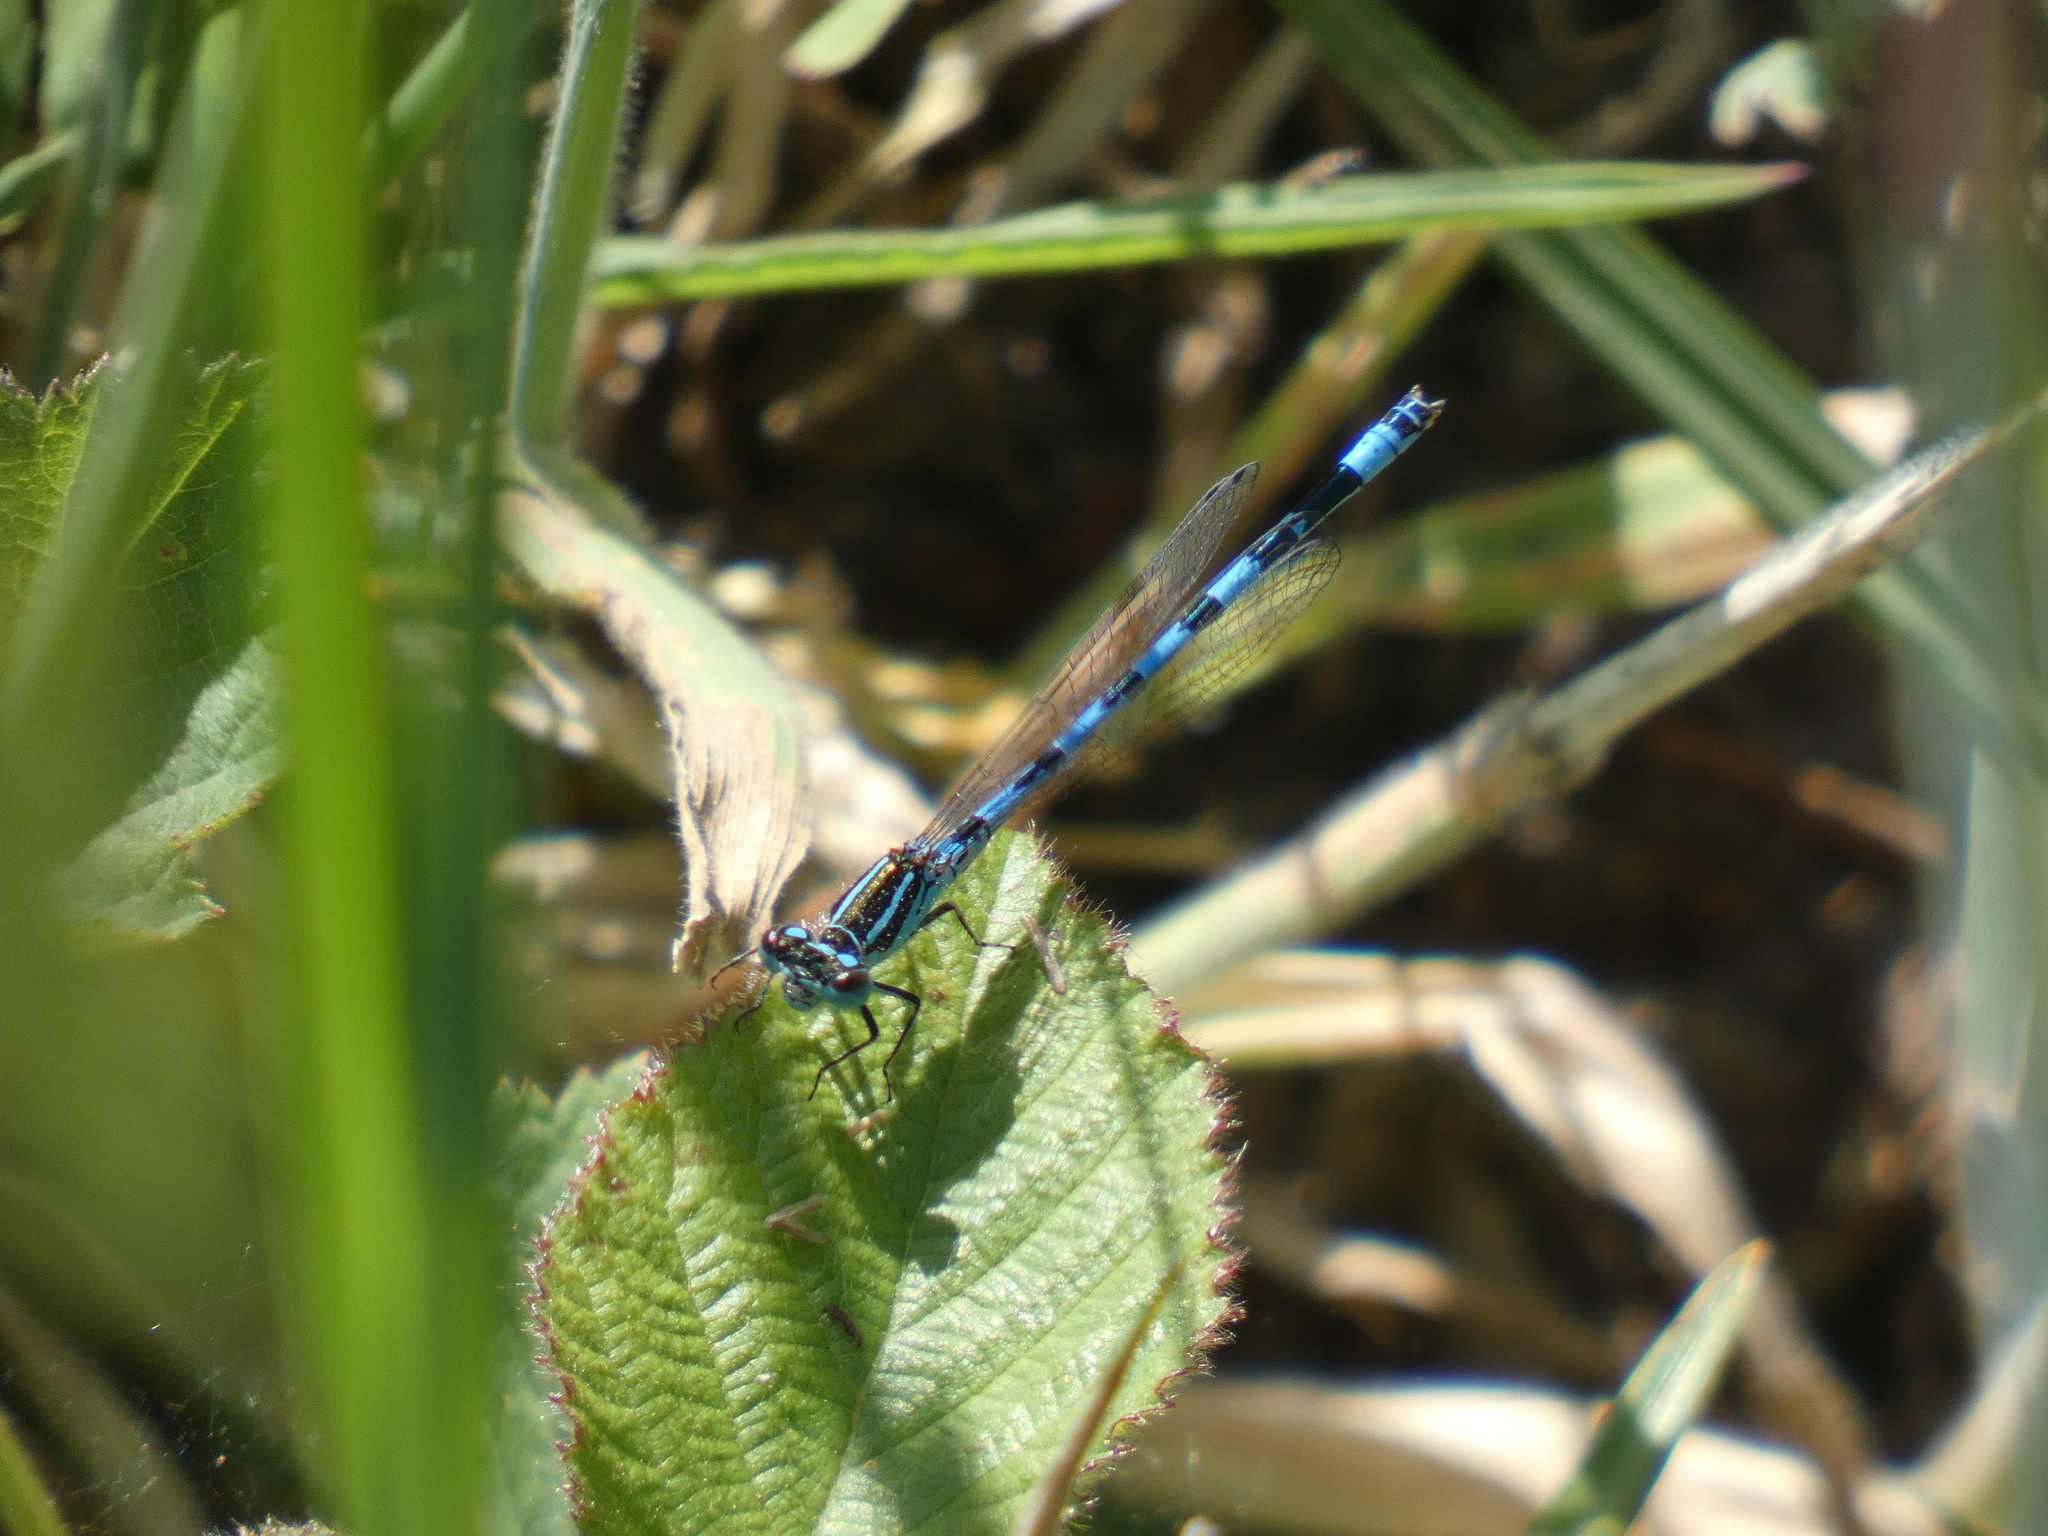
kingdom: Animalia
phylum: Arthropoda
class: Insecta
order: Odonata
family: Coenagrionidae
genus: Coenagrion
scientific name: Coenagrion mercuriale
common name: Southern damselfly
